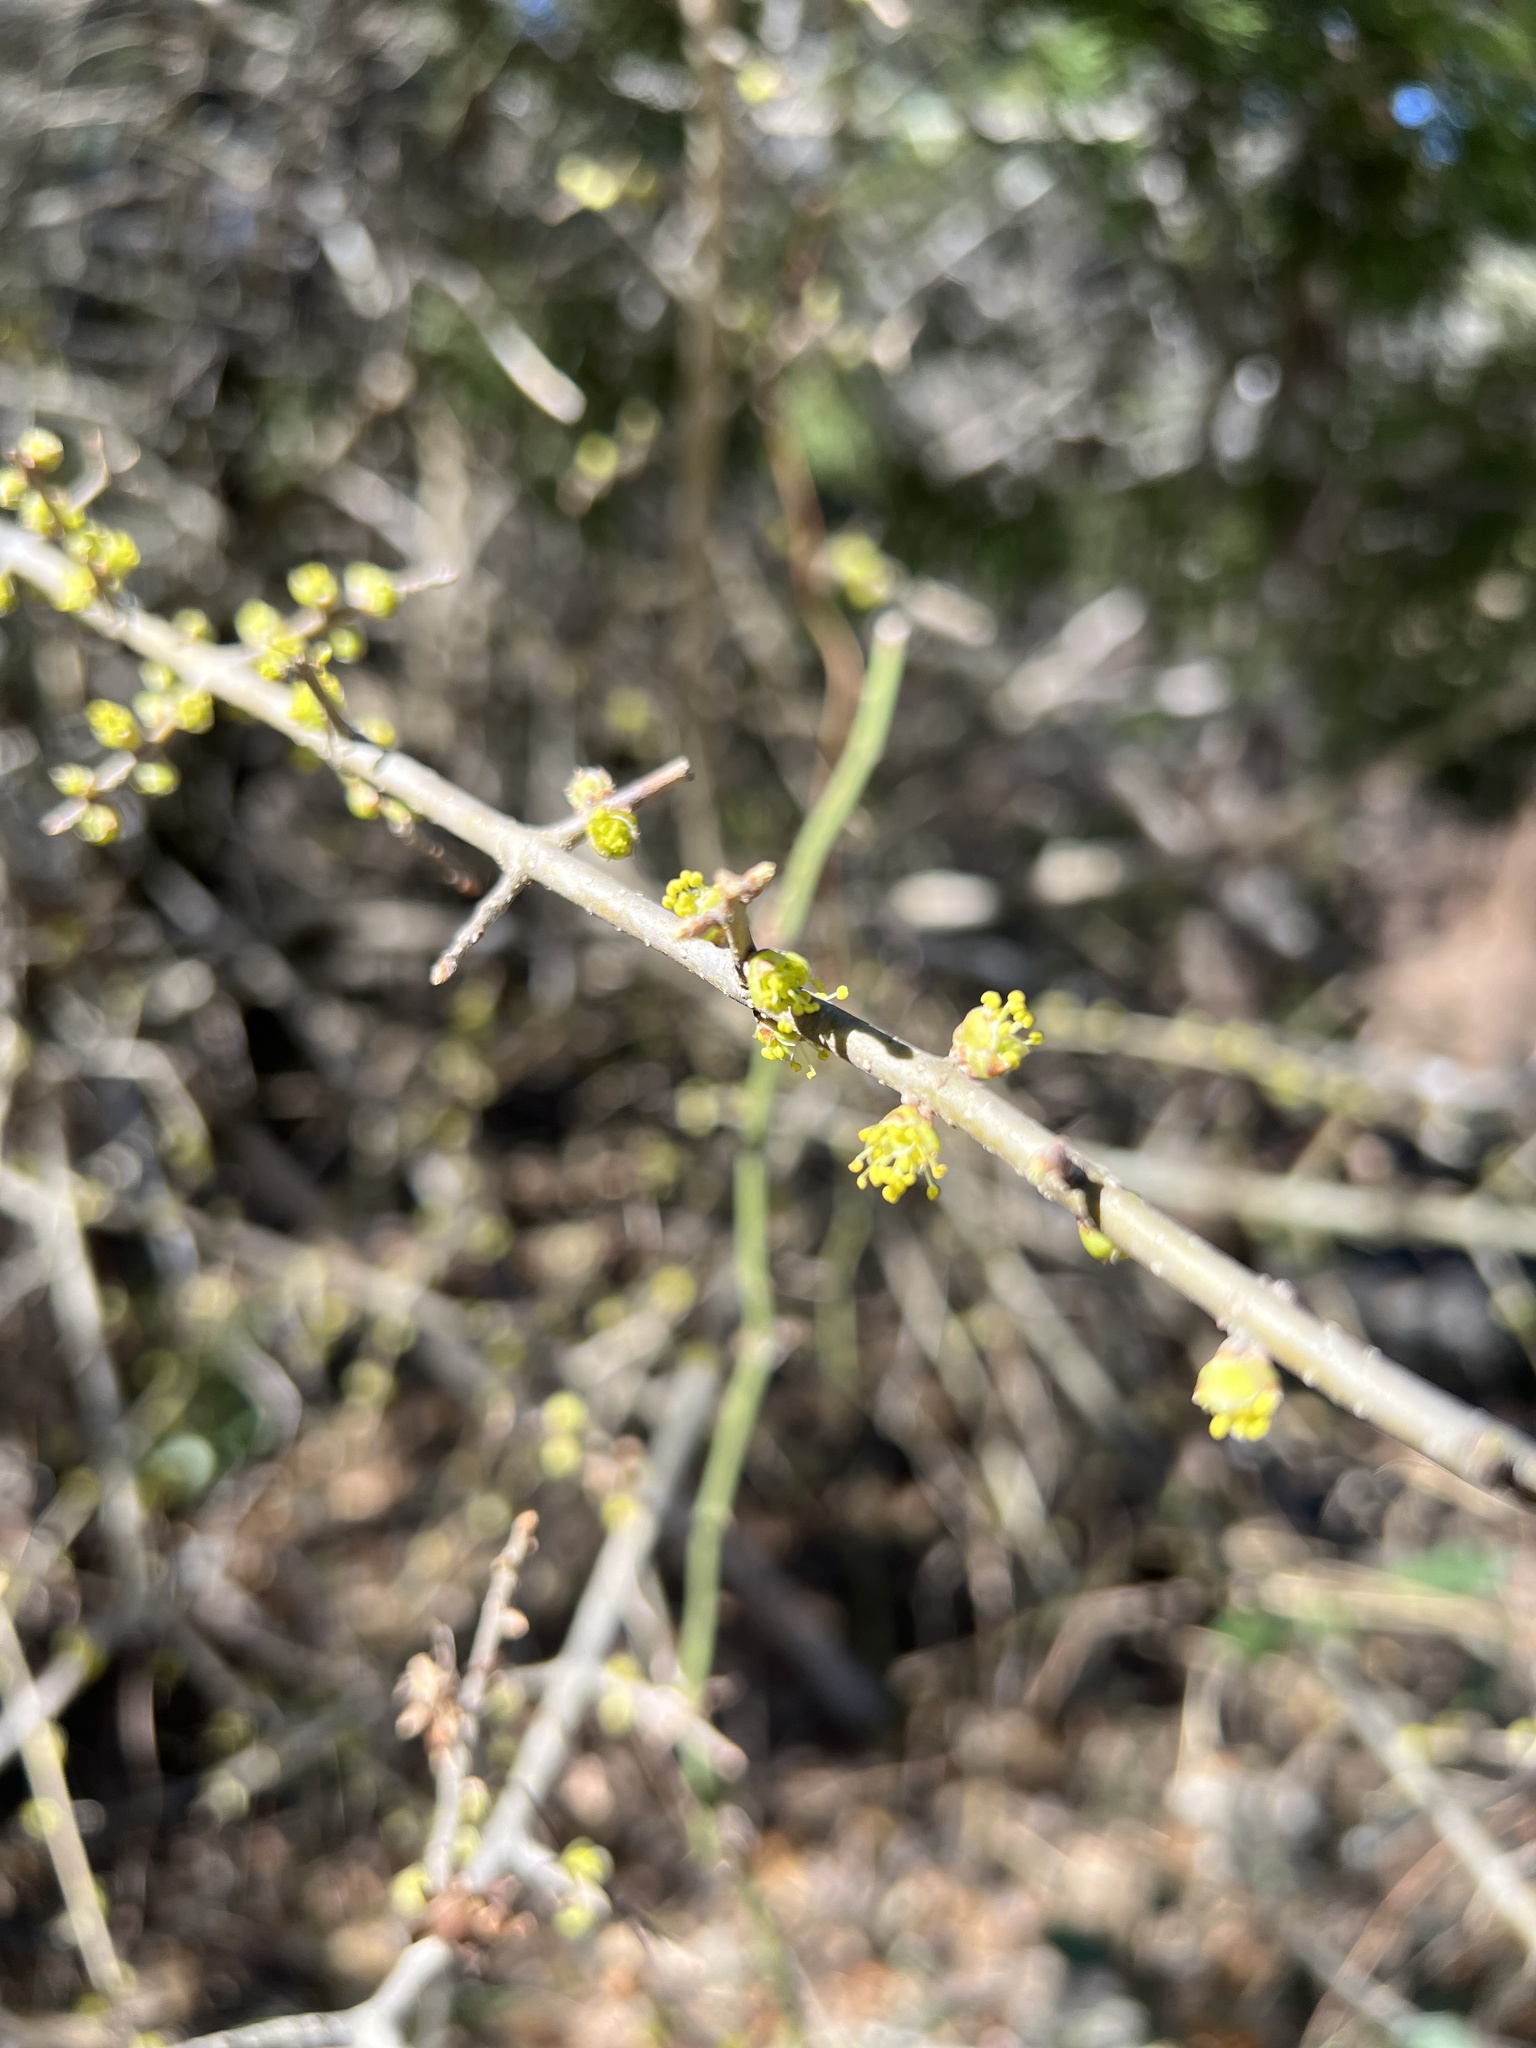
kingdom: Plantae
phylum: Tracheophyta
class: Magnoliopsida
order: Lamiales
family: Oleaceae
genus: Forestiera
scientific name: Forestiera pubescens
